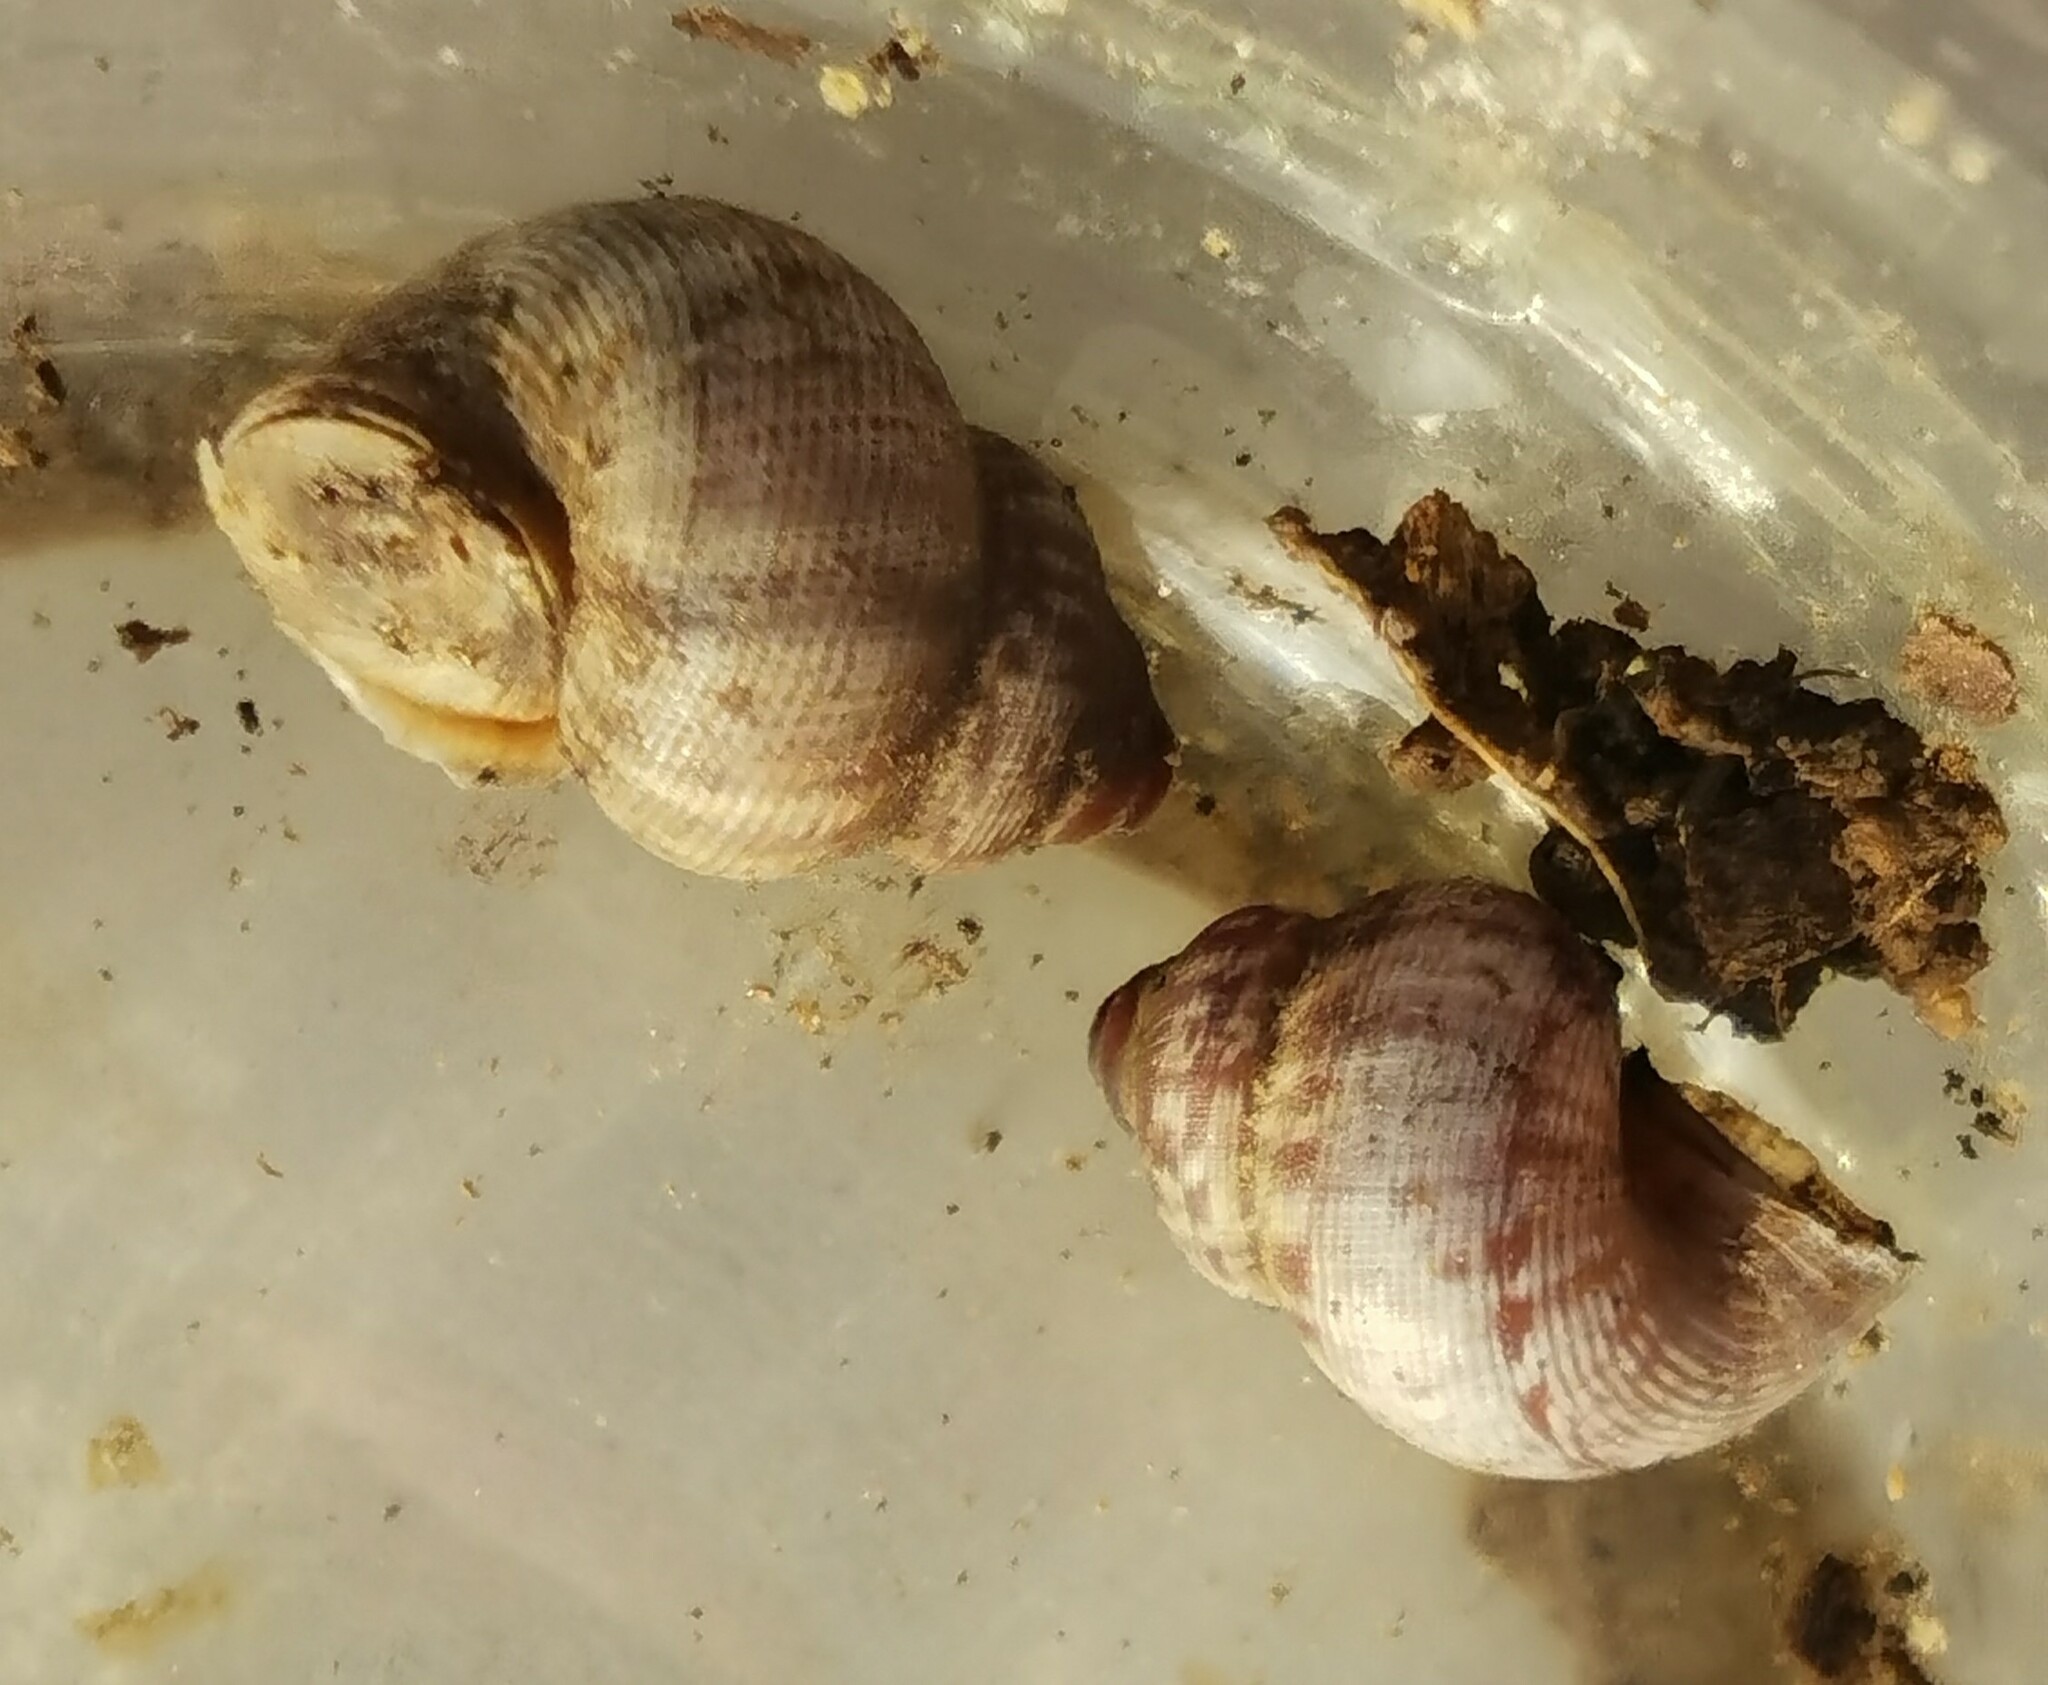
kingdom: Animalia
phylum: Mollusca
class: Gastropoda
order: Littorinimorpha
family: Pomatiidae
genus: Pomatias
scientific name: Pomatias elegans
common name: Red-mouthed snail
